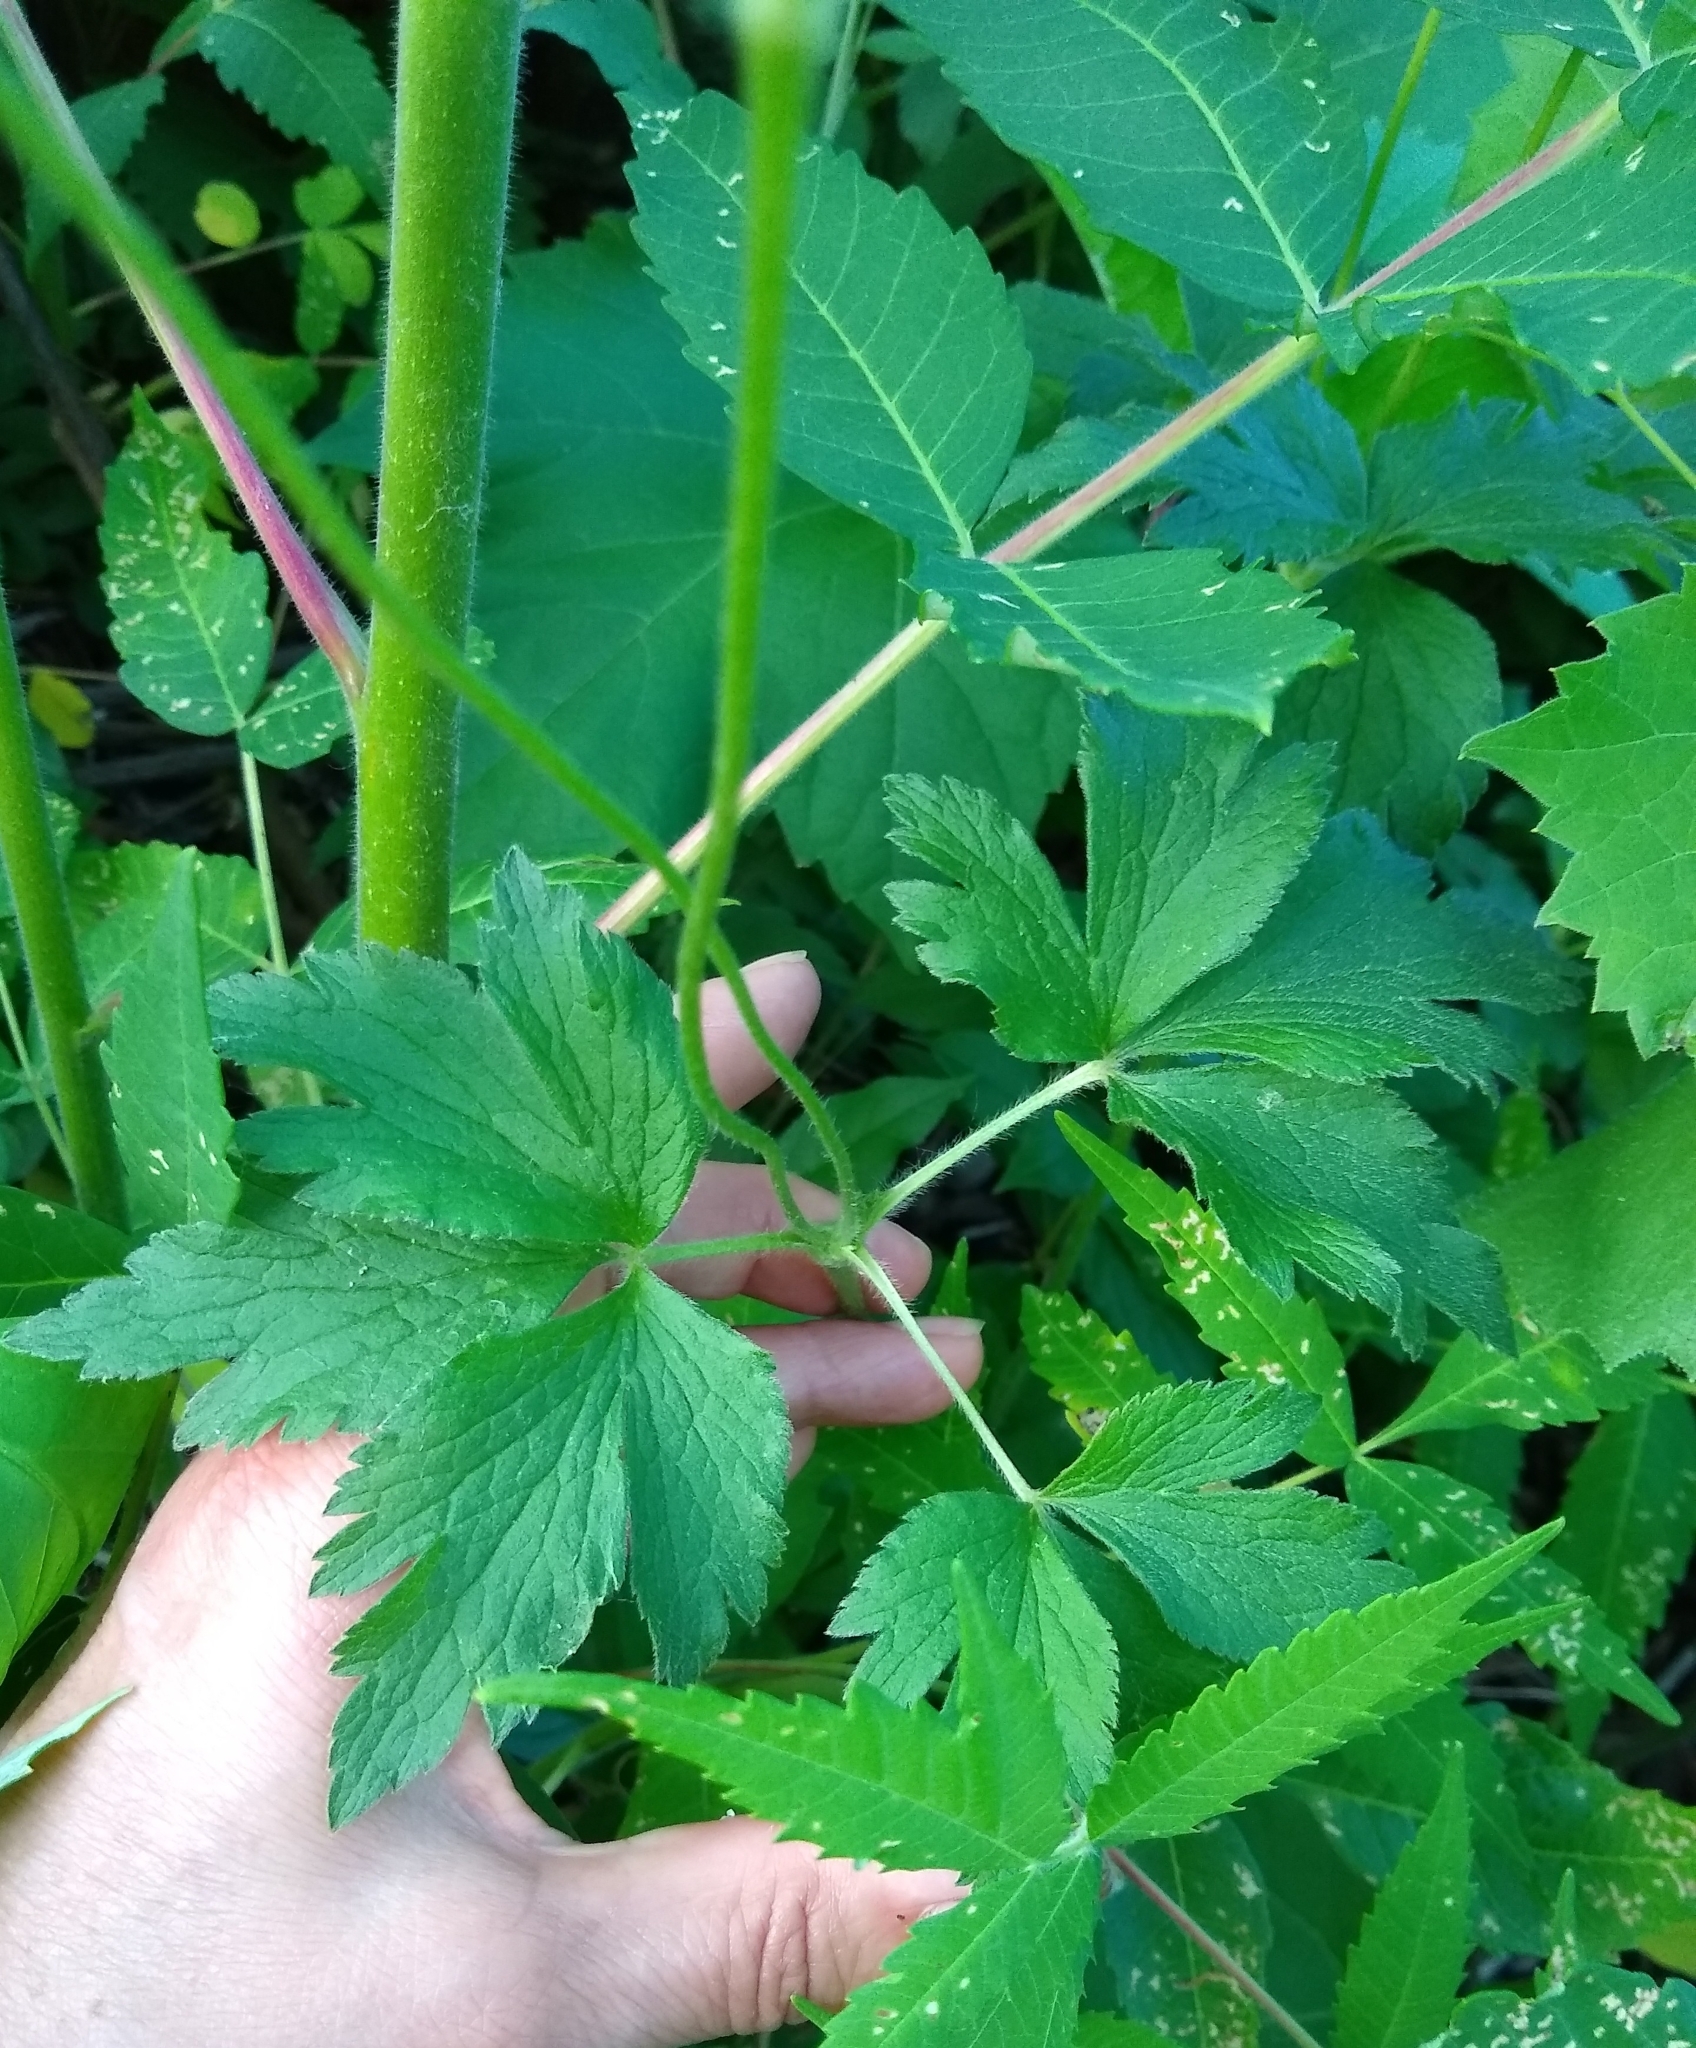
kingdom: Plantae
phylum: Tracheophyta
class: Magnoliopsida
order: Ranunculales
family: Ranunculaceae
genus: Anemone
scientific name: Anemone virginiana
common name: Tall anemone
